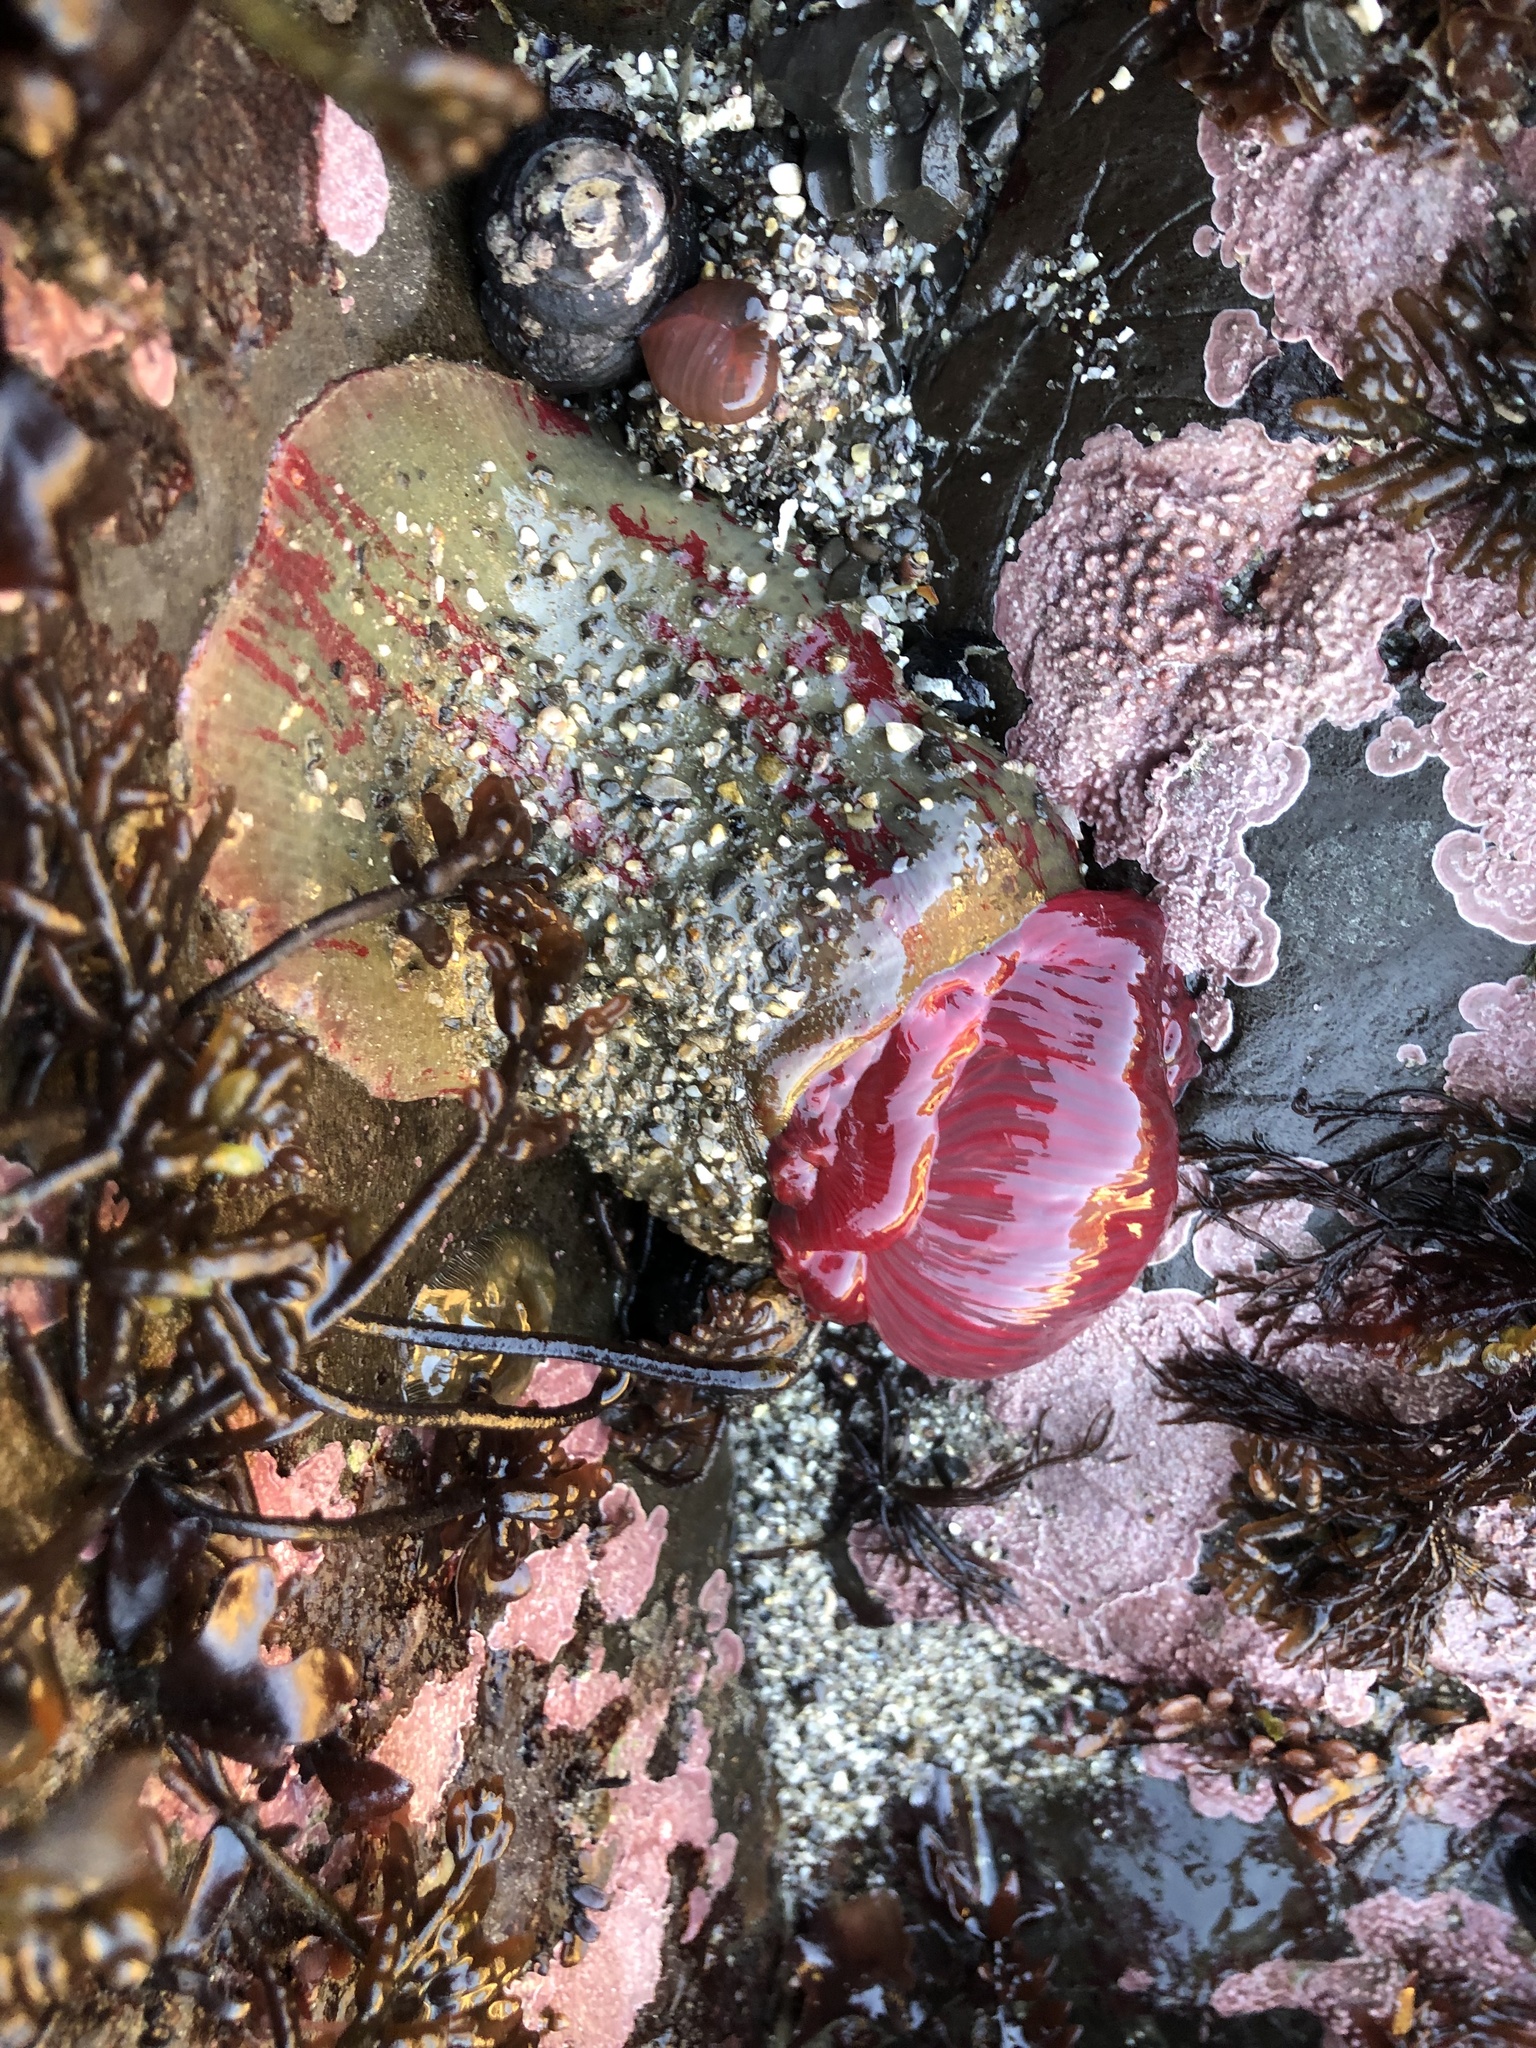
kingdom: Animalia
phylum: Cnidaria
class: Anthozoa
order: Actiniaria
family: Actiniidae
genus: Urticina
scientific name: Urticina grebelnyi
